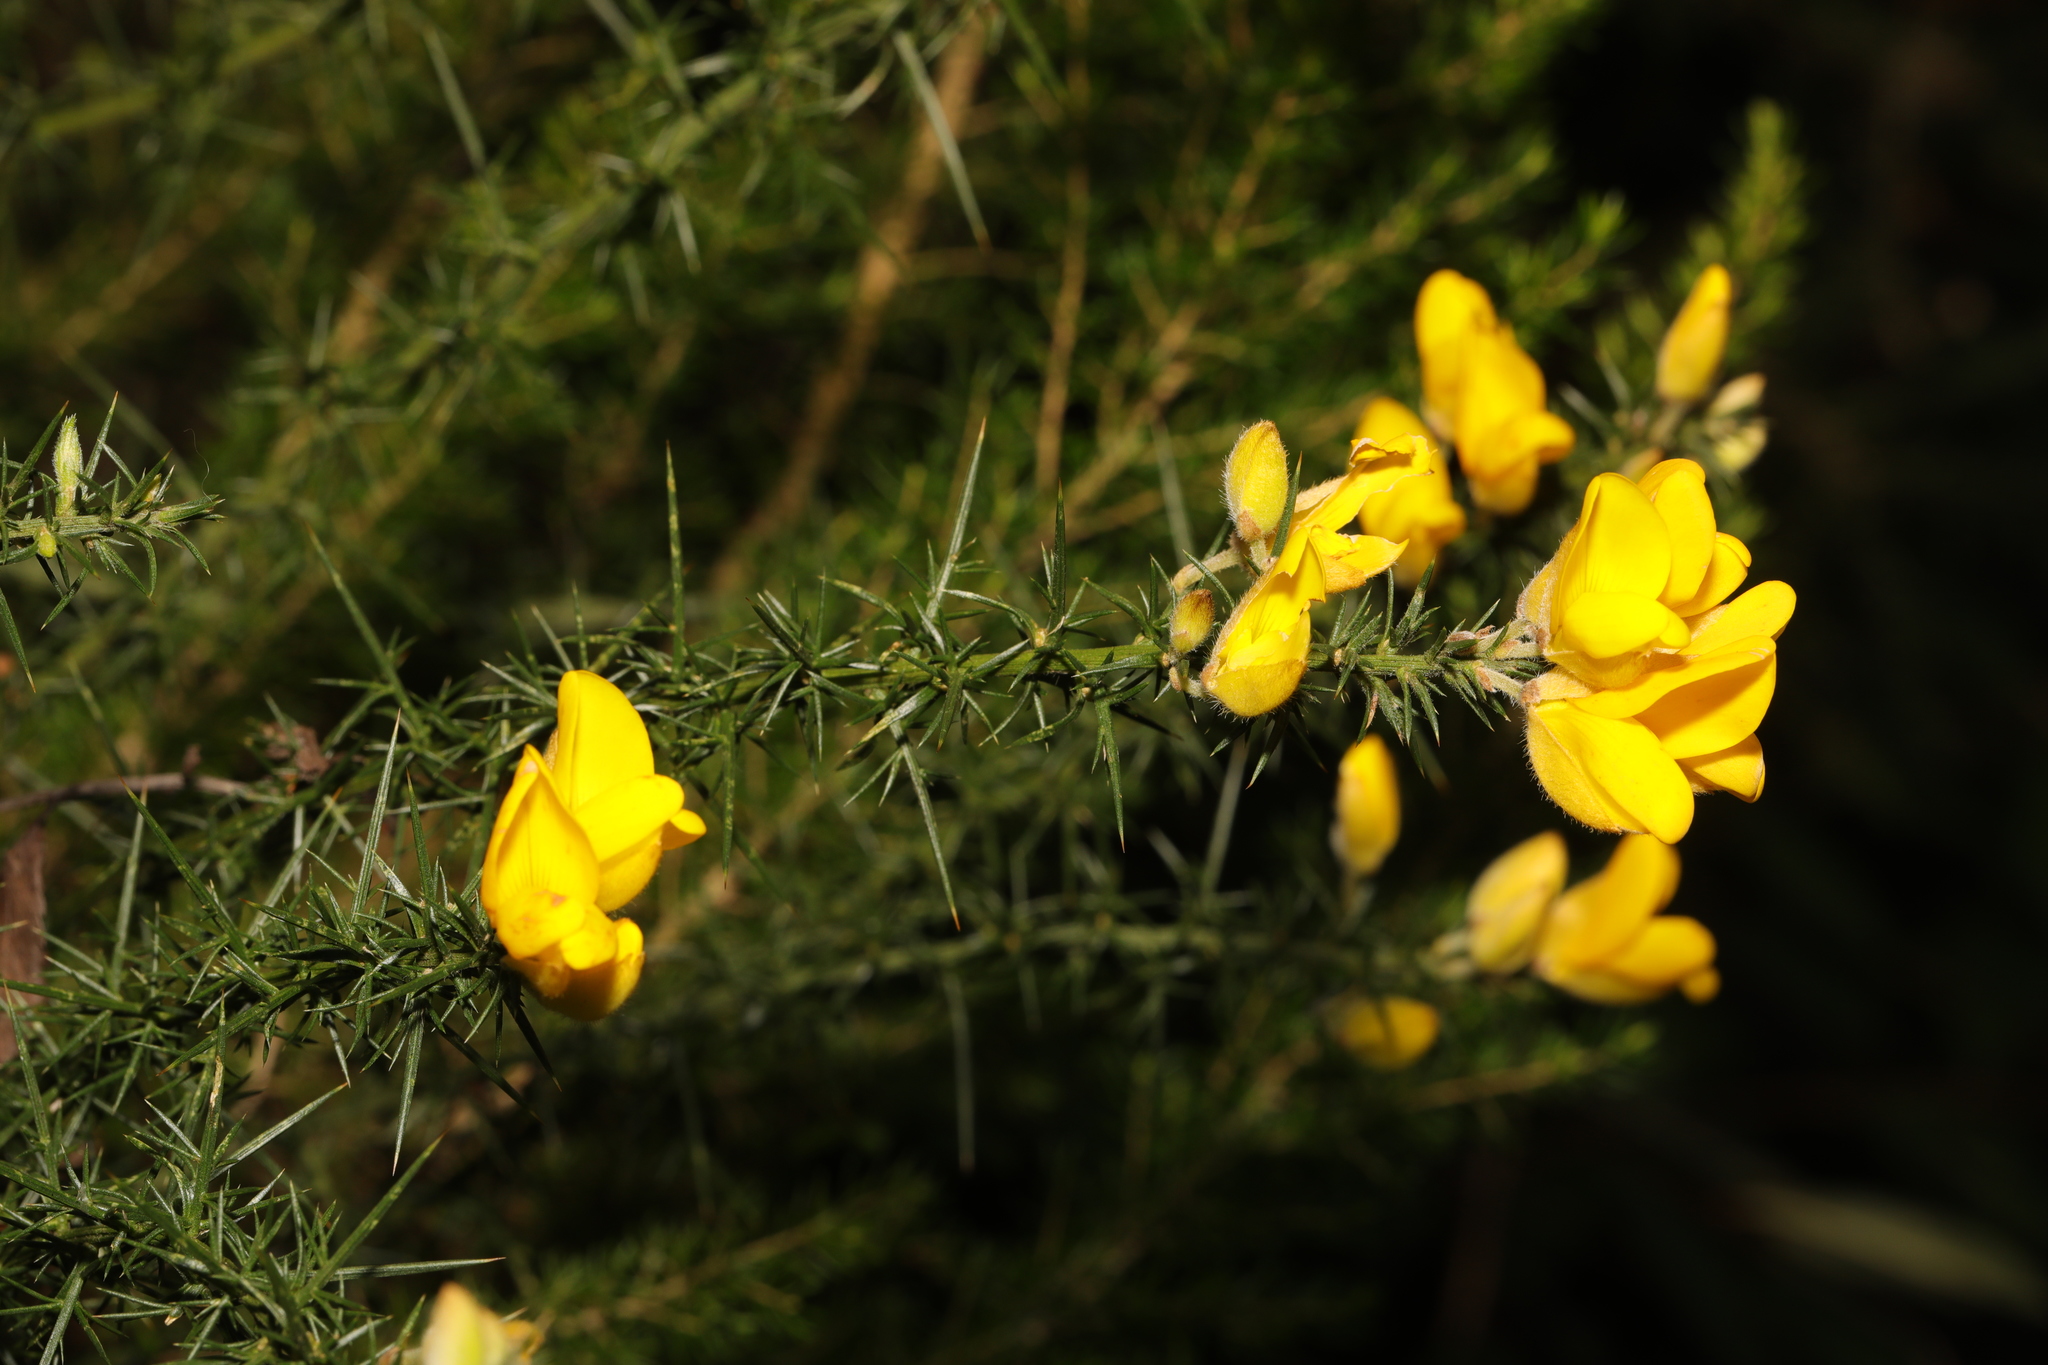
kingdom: Plantae
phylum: Tracheophyta
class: Magnoliopsida
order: Fabales
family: Fabaceae
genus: Ulex
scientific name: Ulex europaeus
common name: Common gorse
